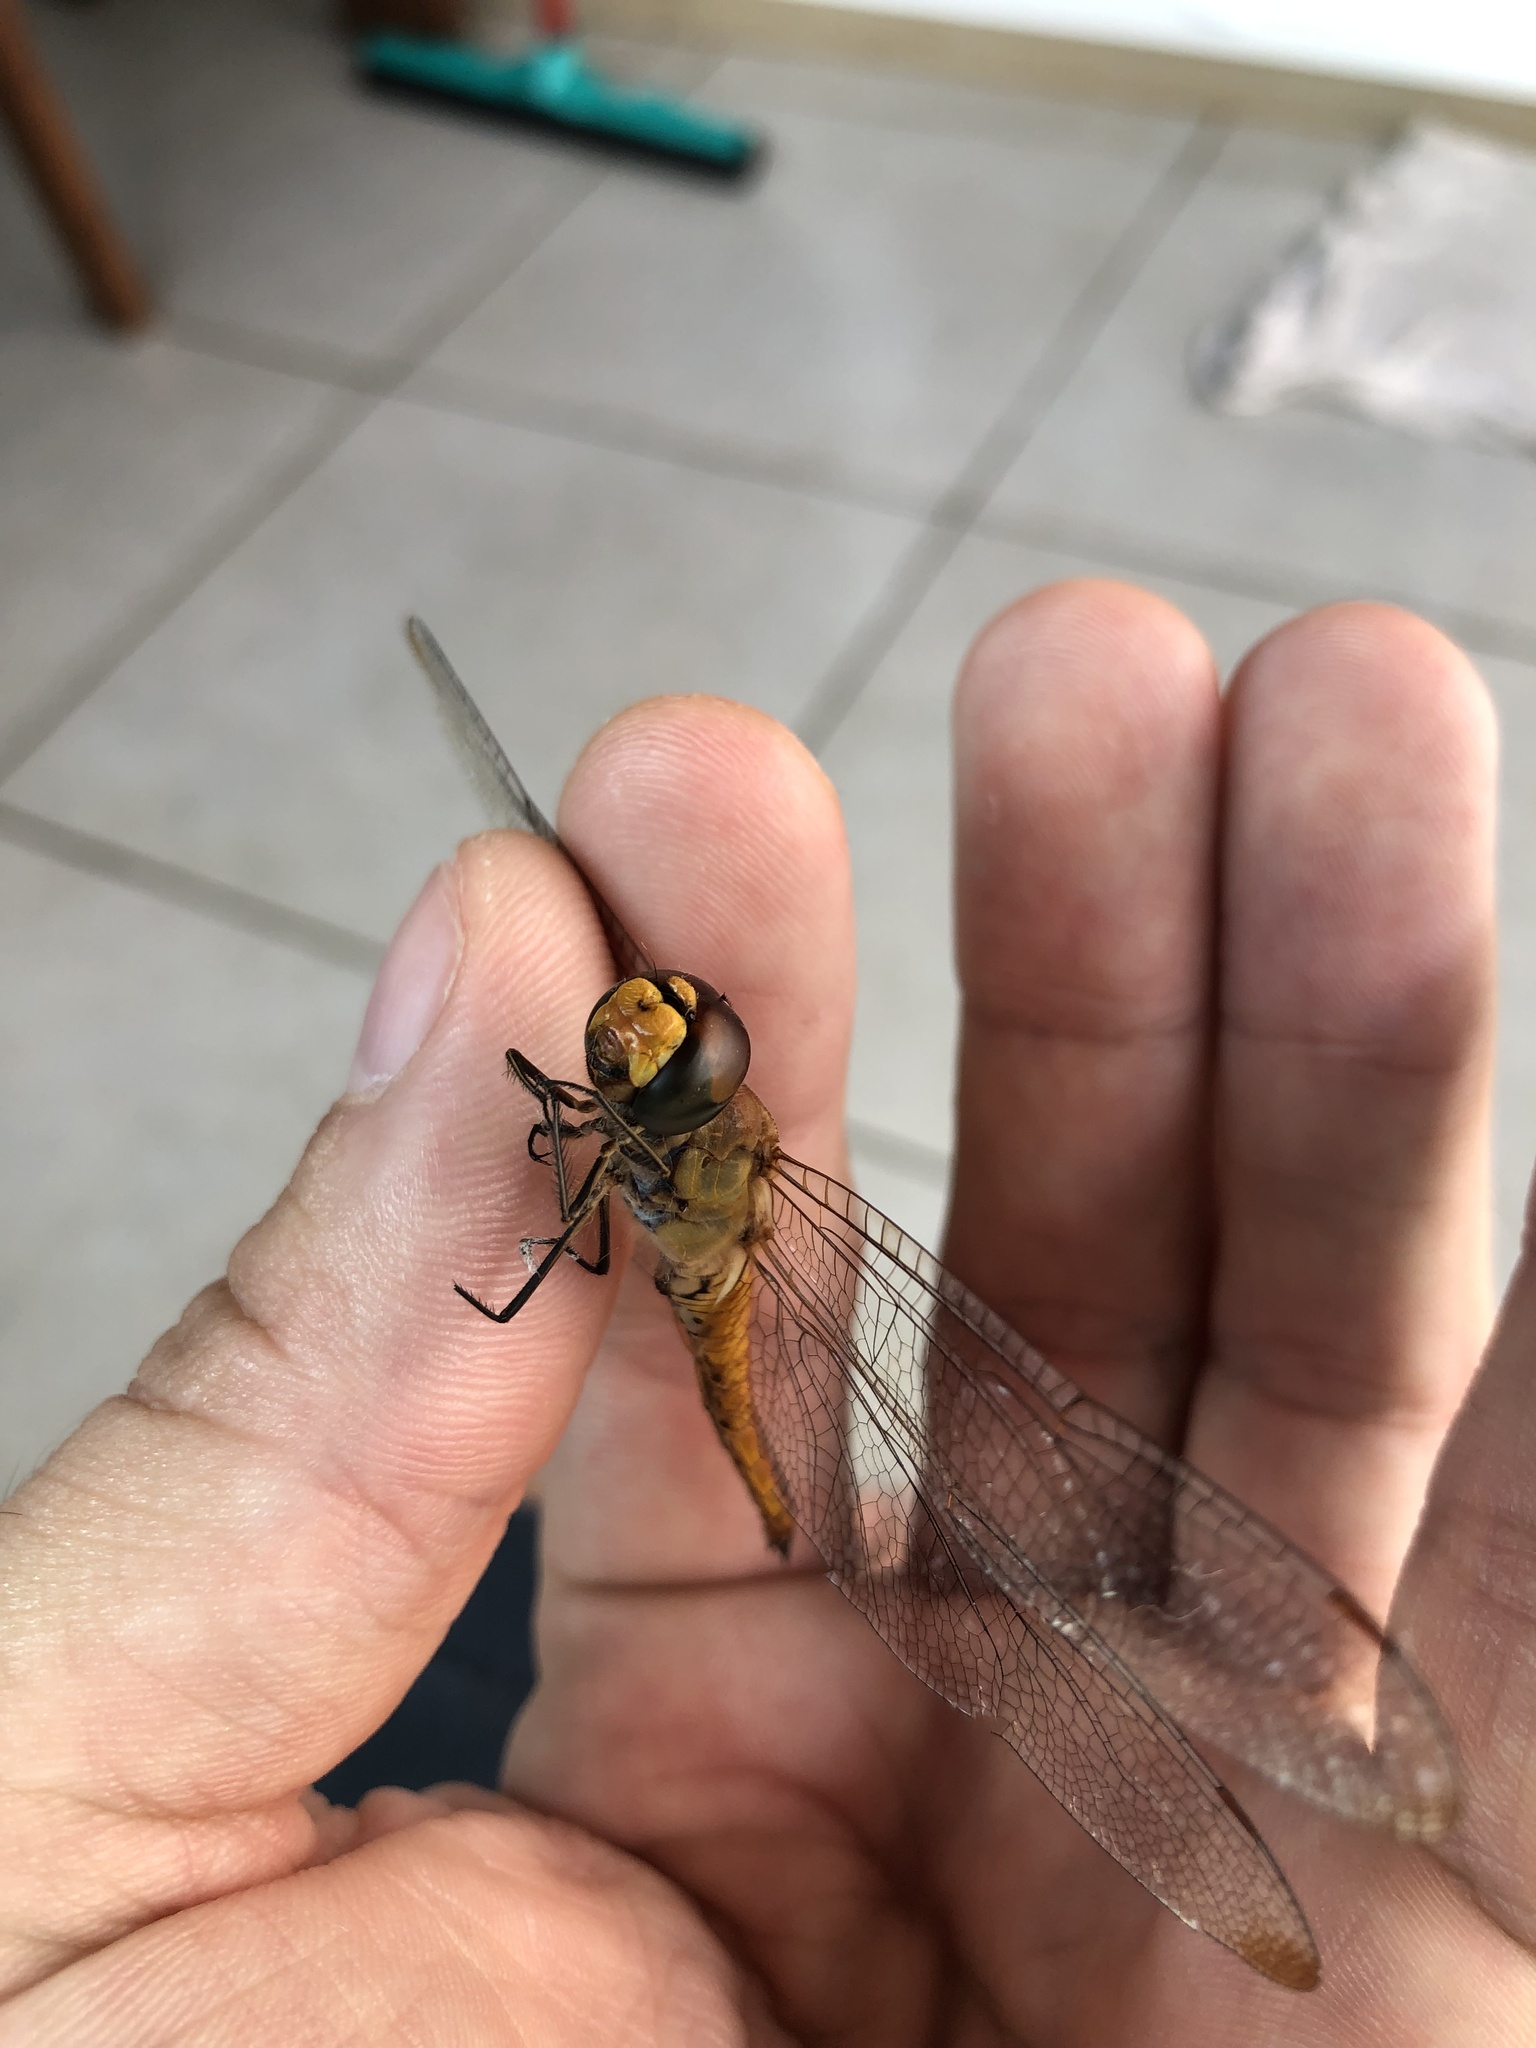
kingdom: Animalia
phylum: Arthropoda
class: Insecta
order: Odonata
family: Libellulidae
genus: Pantala
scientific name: Pantala flavescens
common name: Wandering glider
